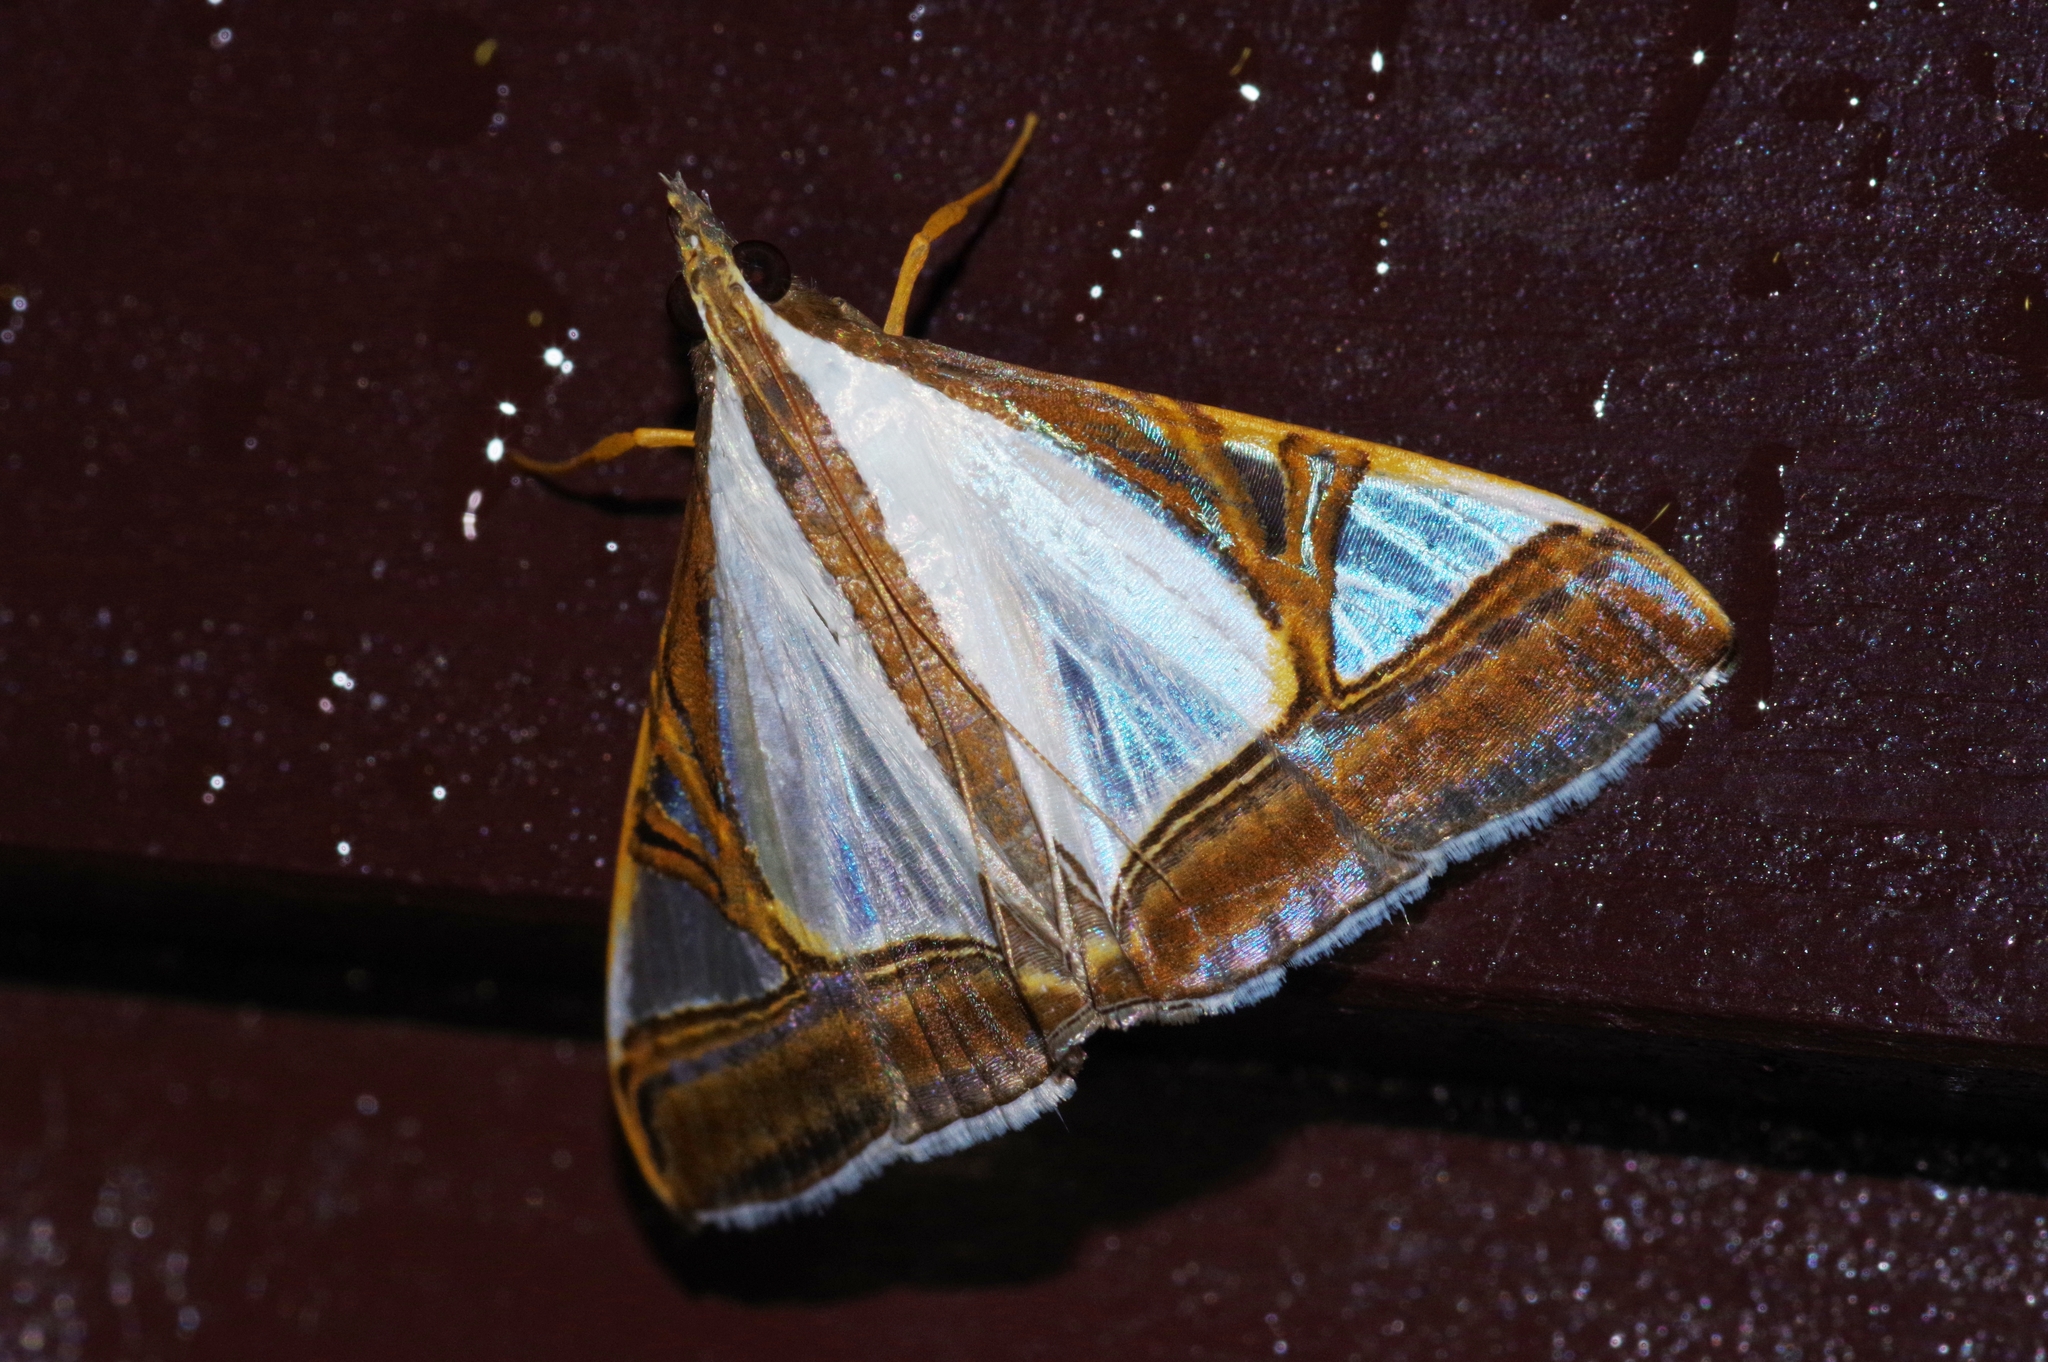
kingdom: Animalia
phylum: Arthropoda
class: Insecta
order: Lepidoptera
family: Crambidae
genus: Agrioglypta
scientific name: Agrioglypta eurytusalis
